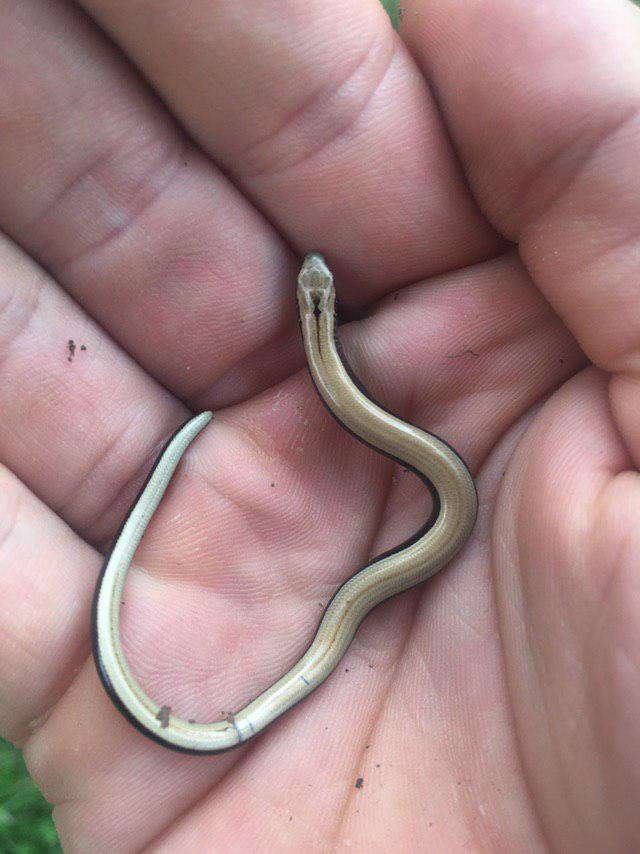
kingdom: Animalia
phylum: Chordata
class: Squamata
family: Anguidae
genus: Anguis
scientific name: Anguis fragilis
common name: Slow worm
